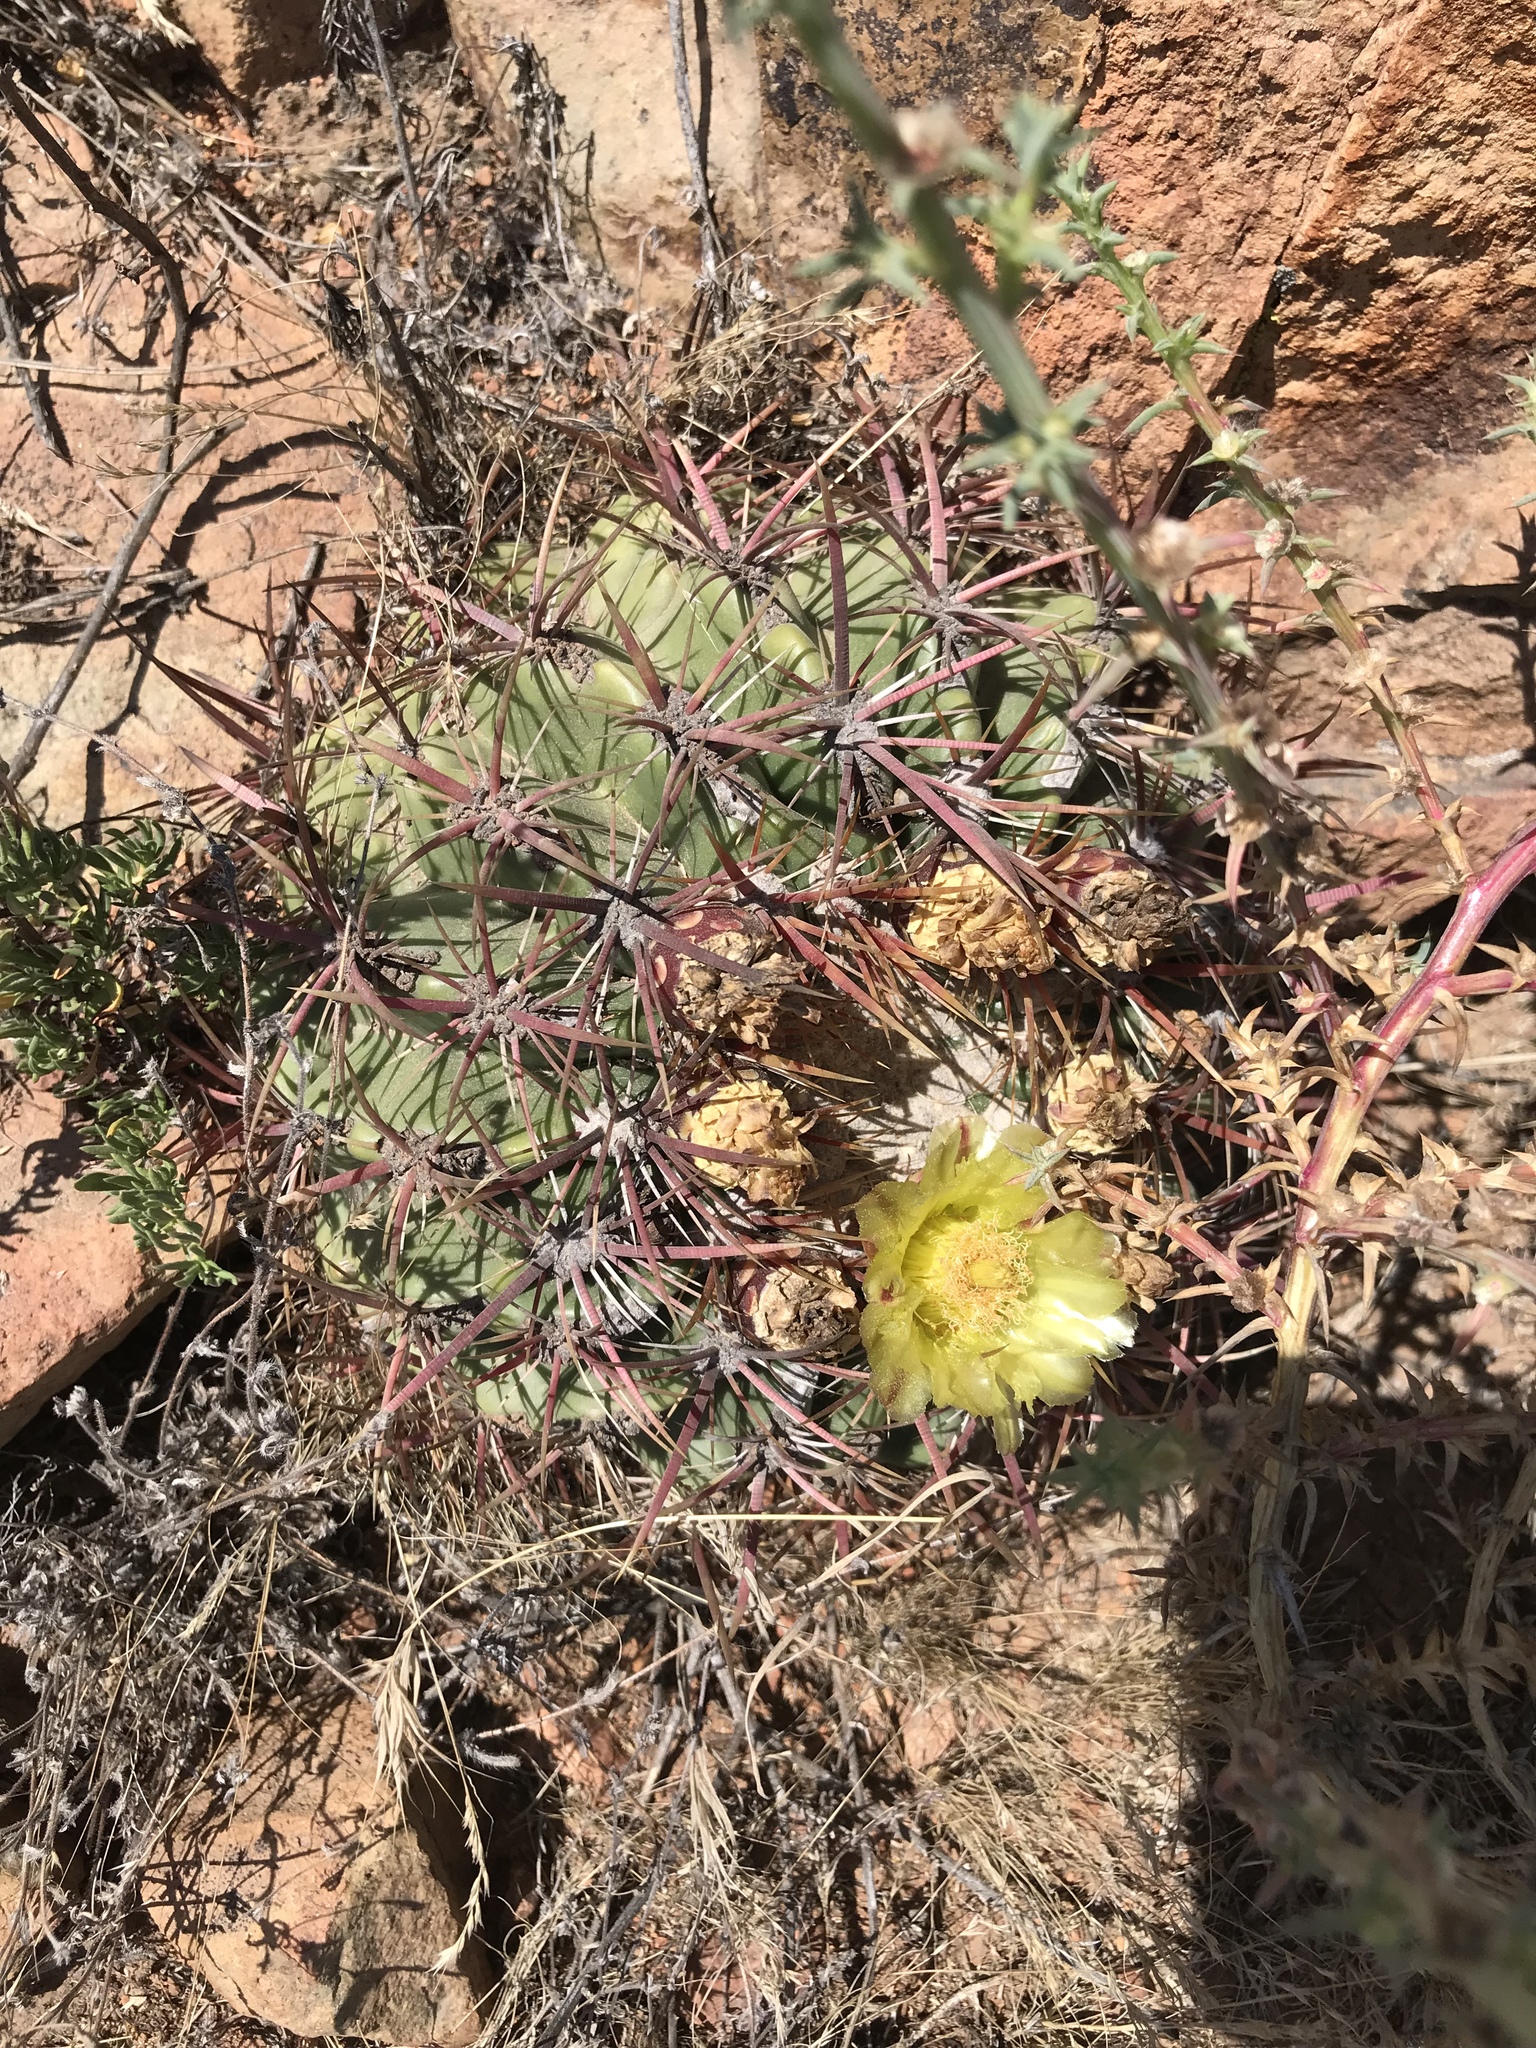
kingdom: Plantae
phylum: Tracheophyta
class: Magnoliopsida
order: Caryophyllales
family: Cactaceae
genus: Ferocactus
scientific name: Ferocactus viridescens
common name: San diego barrel cactus
